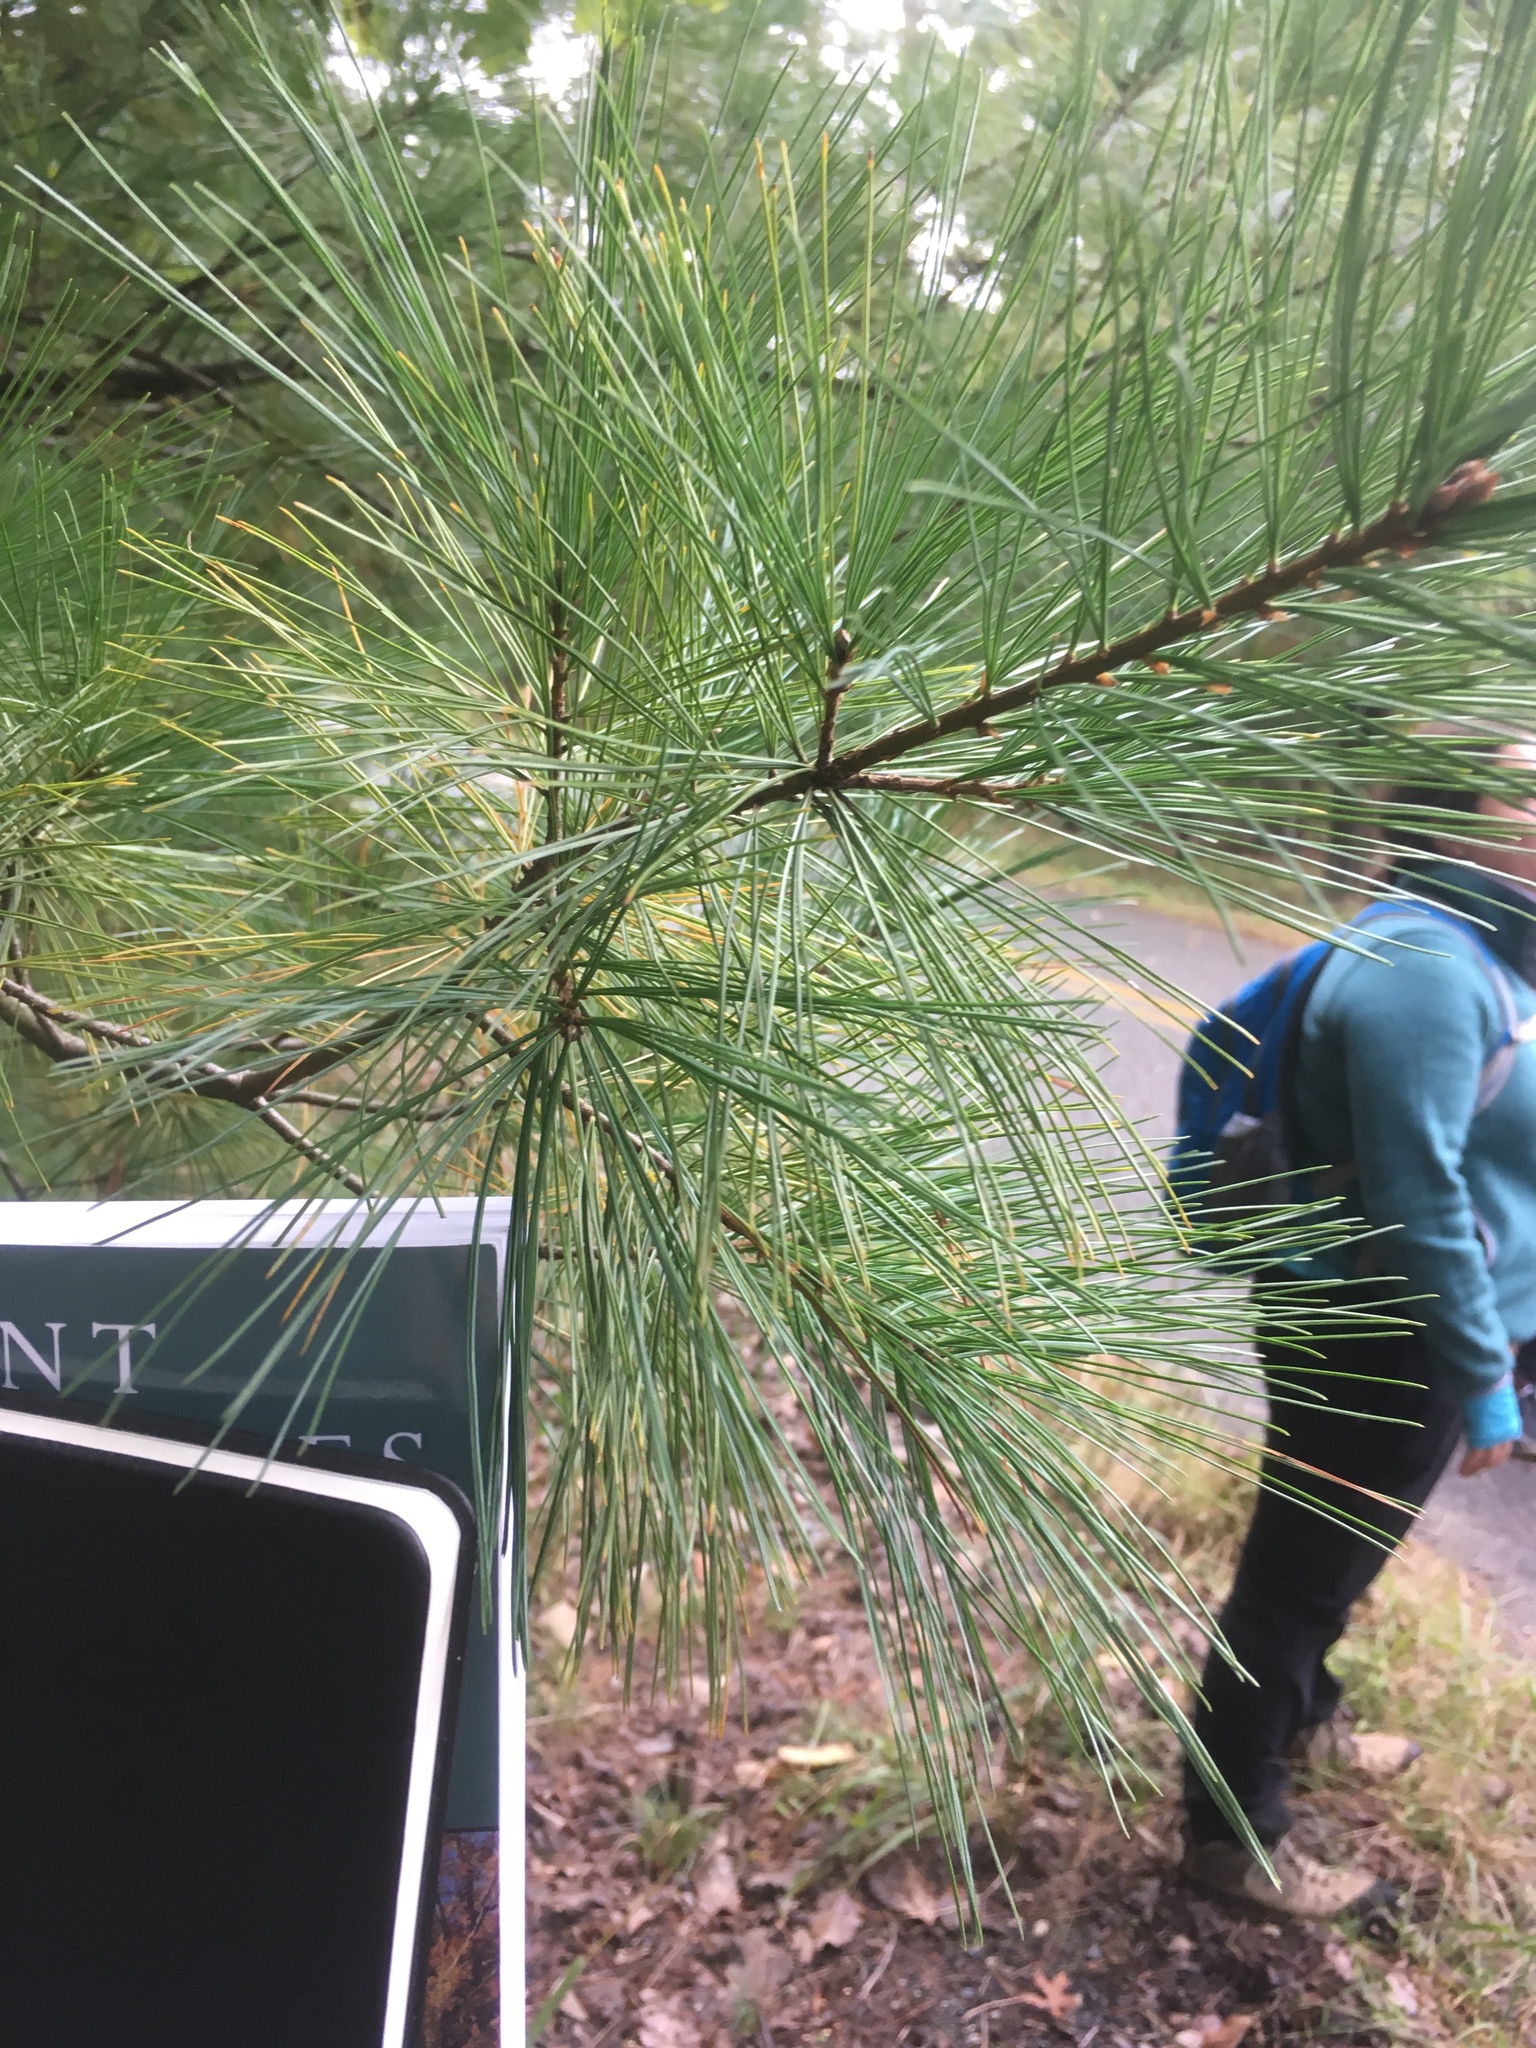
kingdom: Plantae
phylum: Tracheophyta
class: Pinopsida
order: Pinales
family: Pinaceae
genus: Pinus
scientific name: Pinus strobus
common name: Weymouth pine
